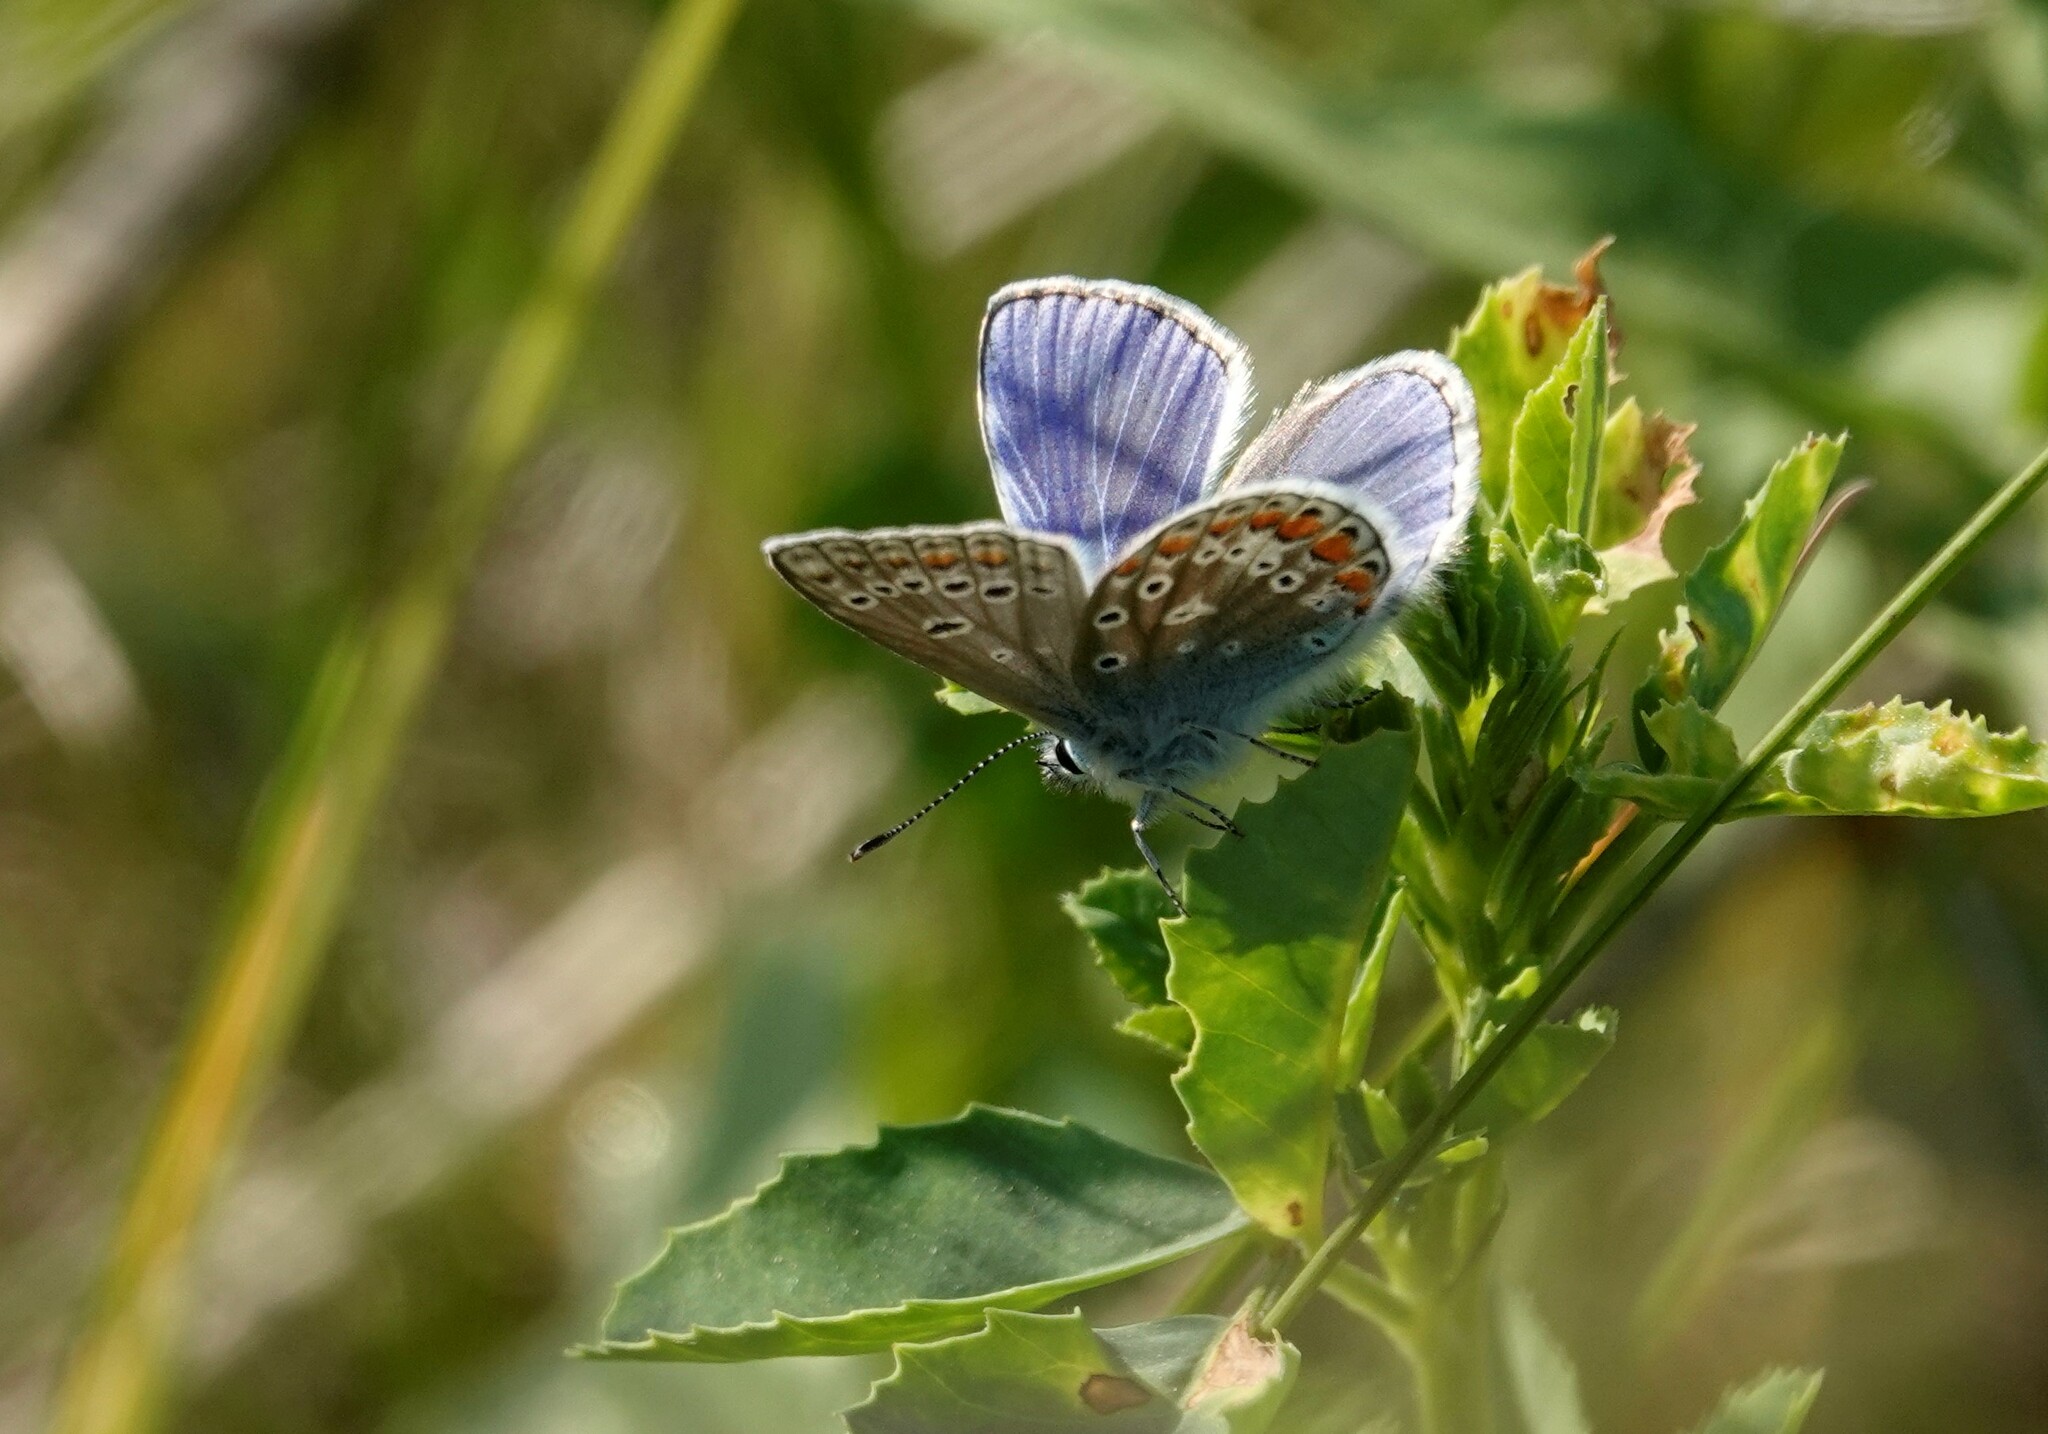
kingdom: Animalia
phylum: Arthropoda
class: Insecta
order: Lepidoptera
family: Lycaenidae
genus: Polyommatus
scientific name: Polyommatus icarus
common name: Common blue
